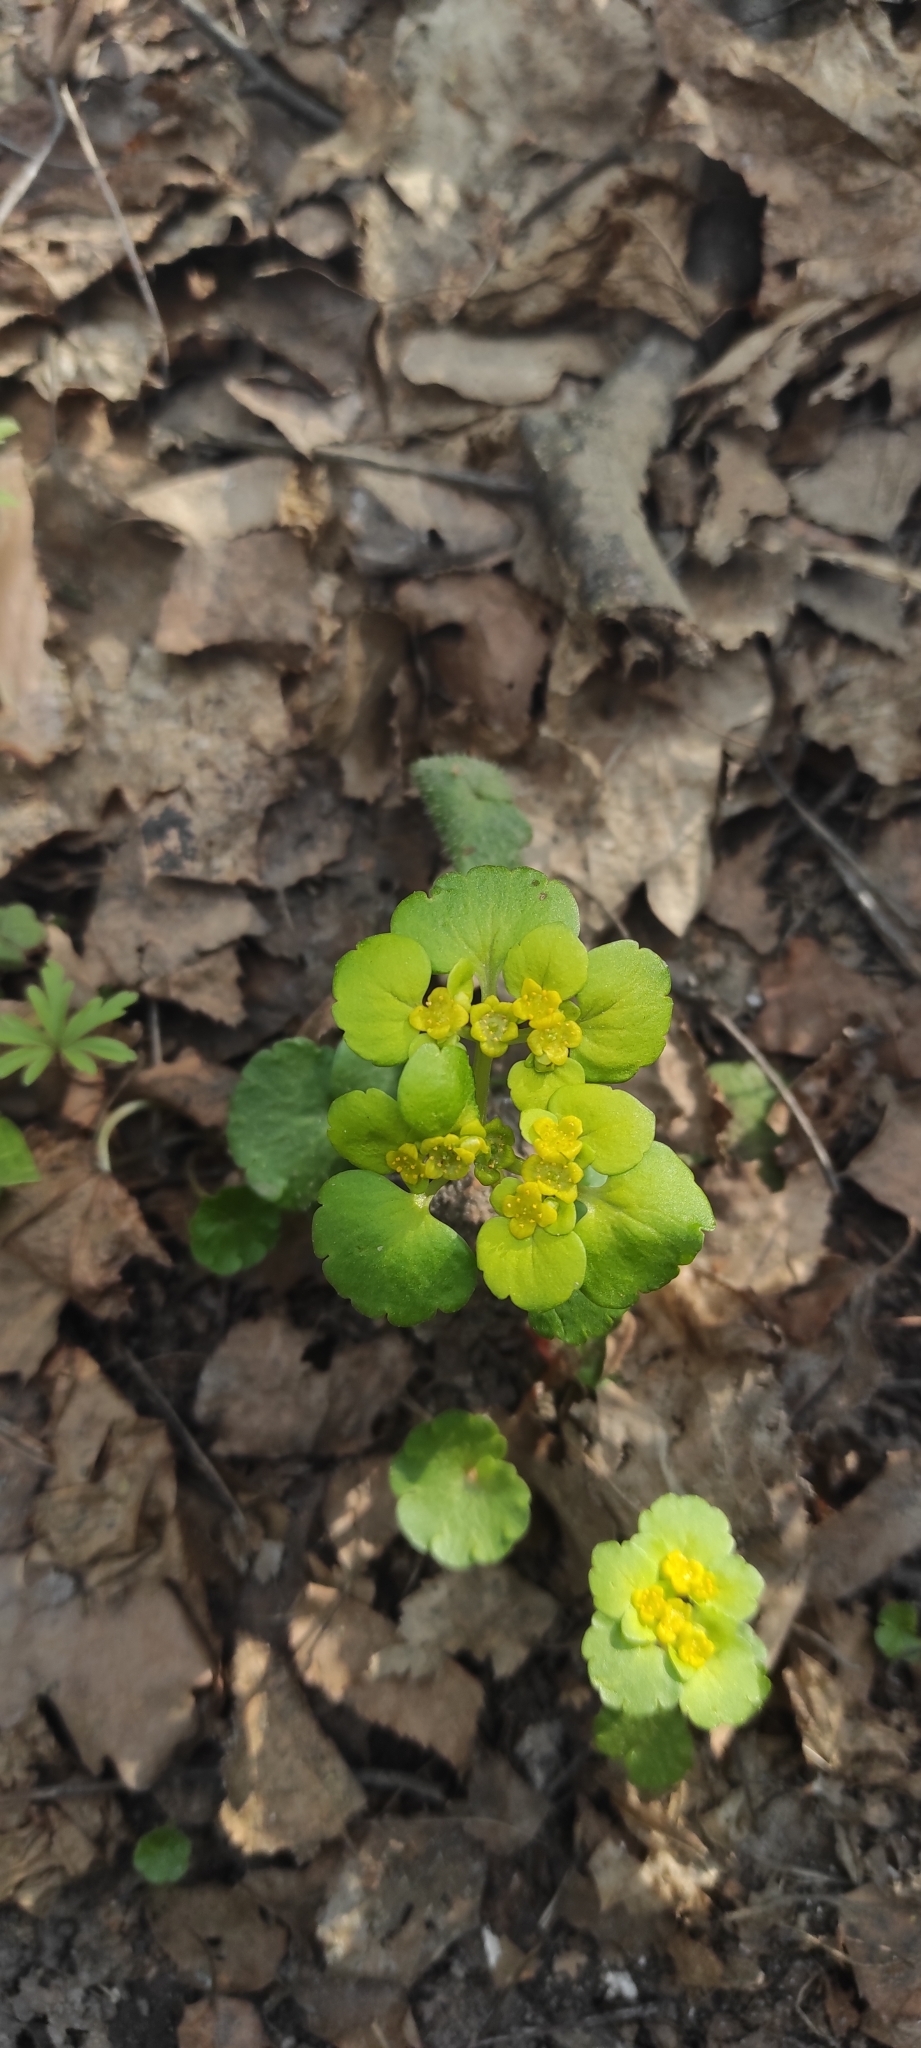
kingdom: Plantae
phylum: Tracheophyta
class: Magnoliopsida
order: Saxifragales
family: Saxifragaceae
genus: Chrysosplenium
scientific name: Chrysosplenium alternifolium
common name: Alternate-leaved golden-saxifrage
